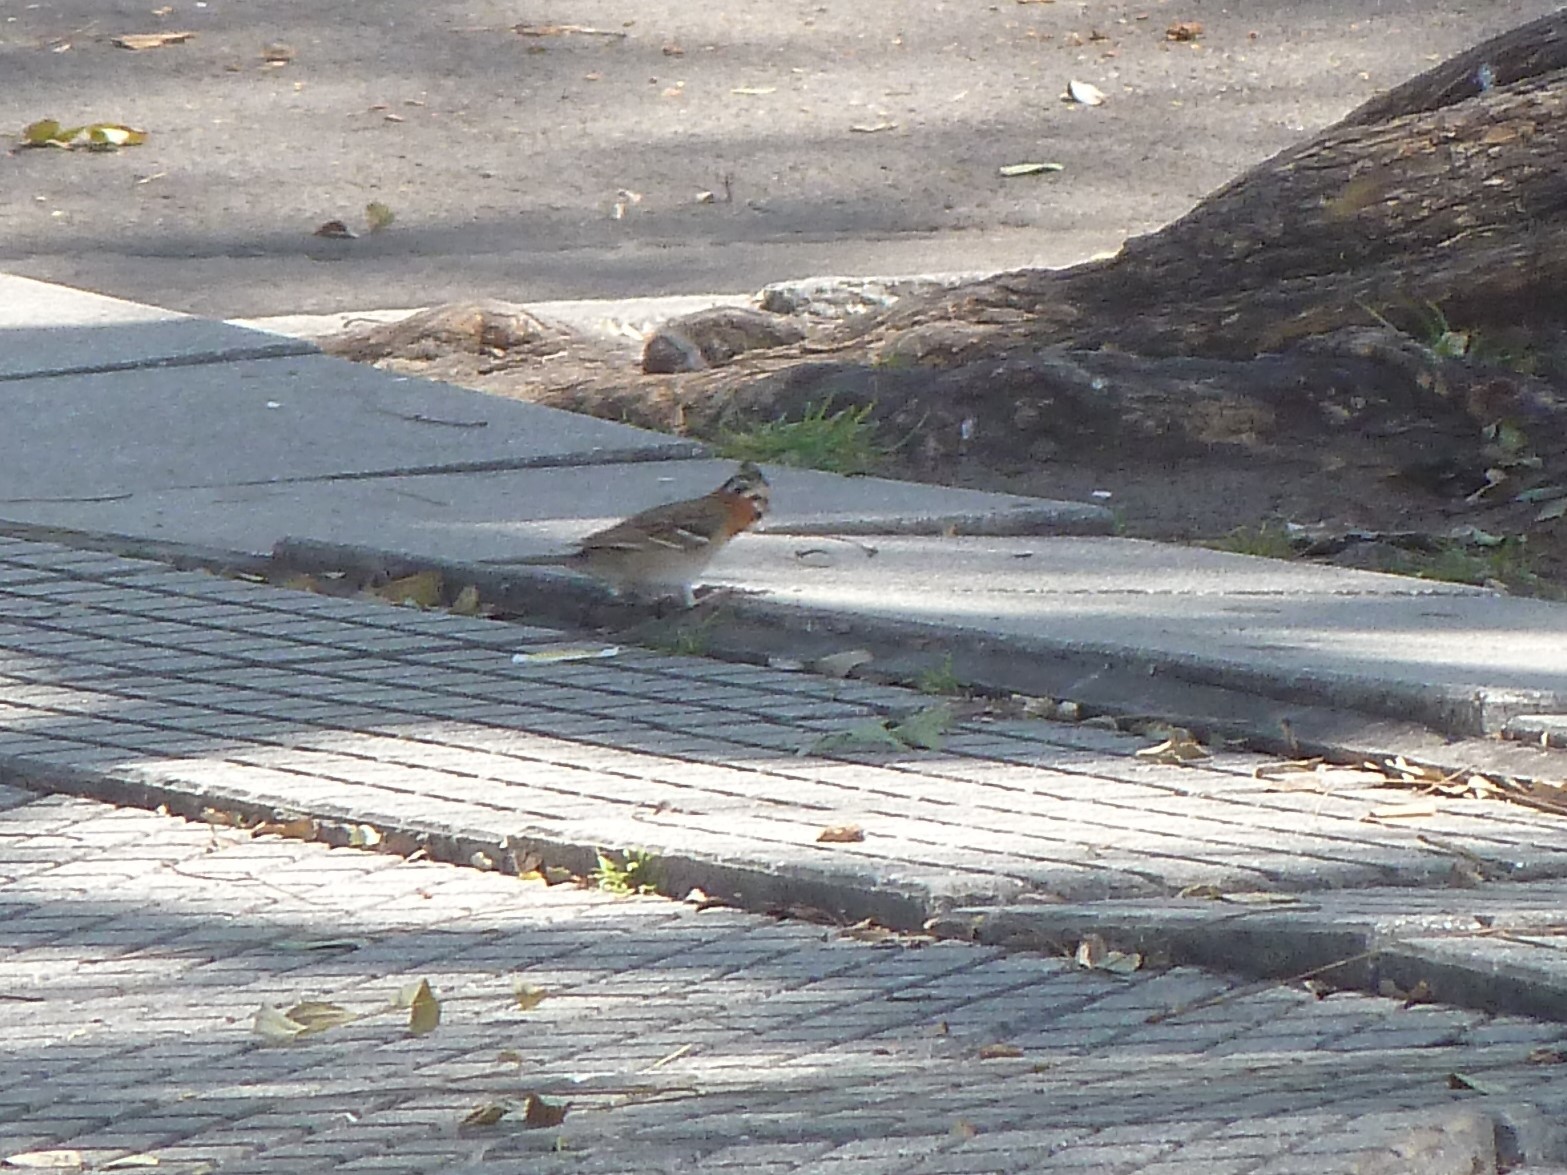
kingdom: Animalia
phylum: Chordata
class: Aves
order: Passeriformes
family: Passerellidae
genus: Zonotrichia
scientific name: Zonotrichia capensis
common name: Rufous-collared sparrow
